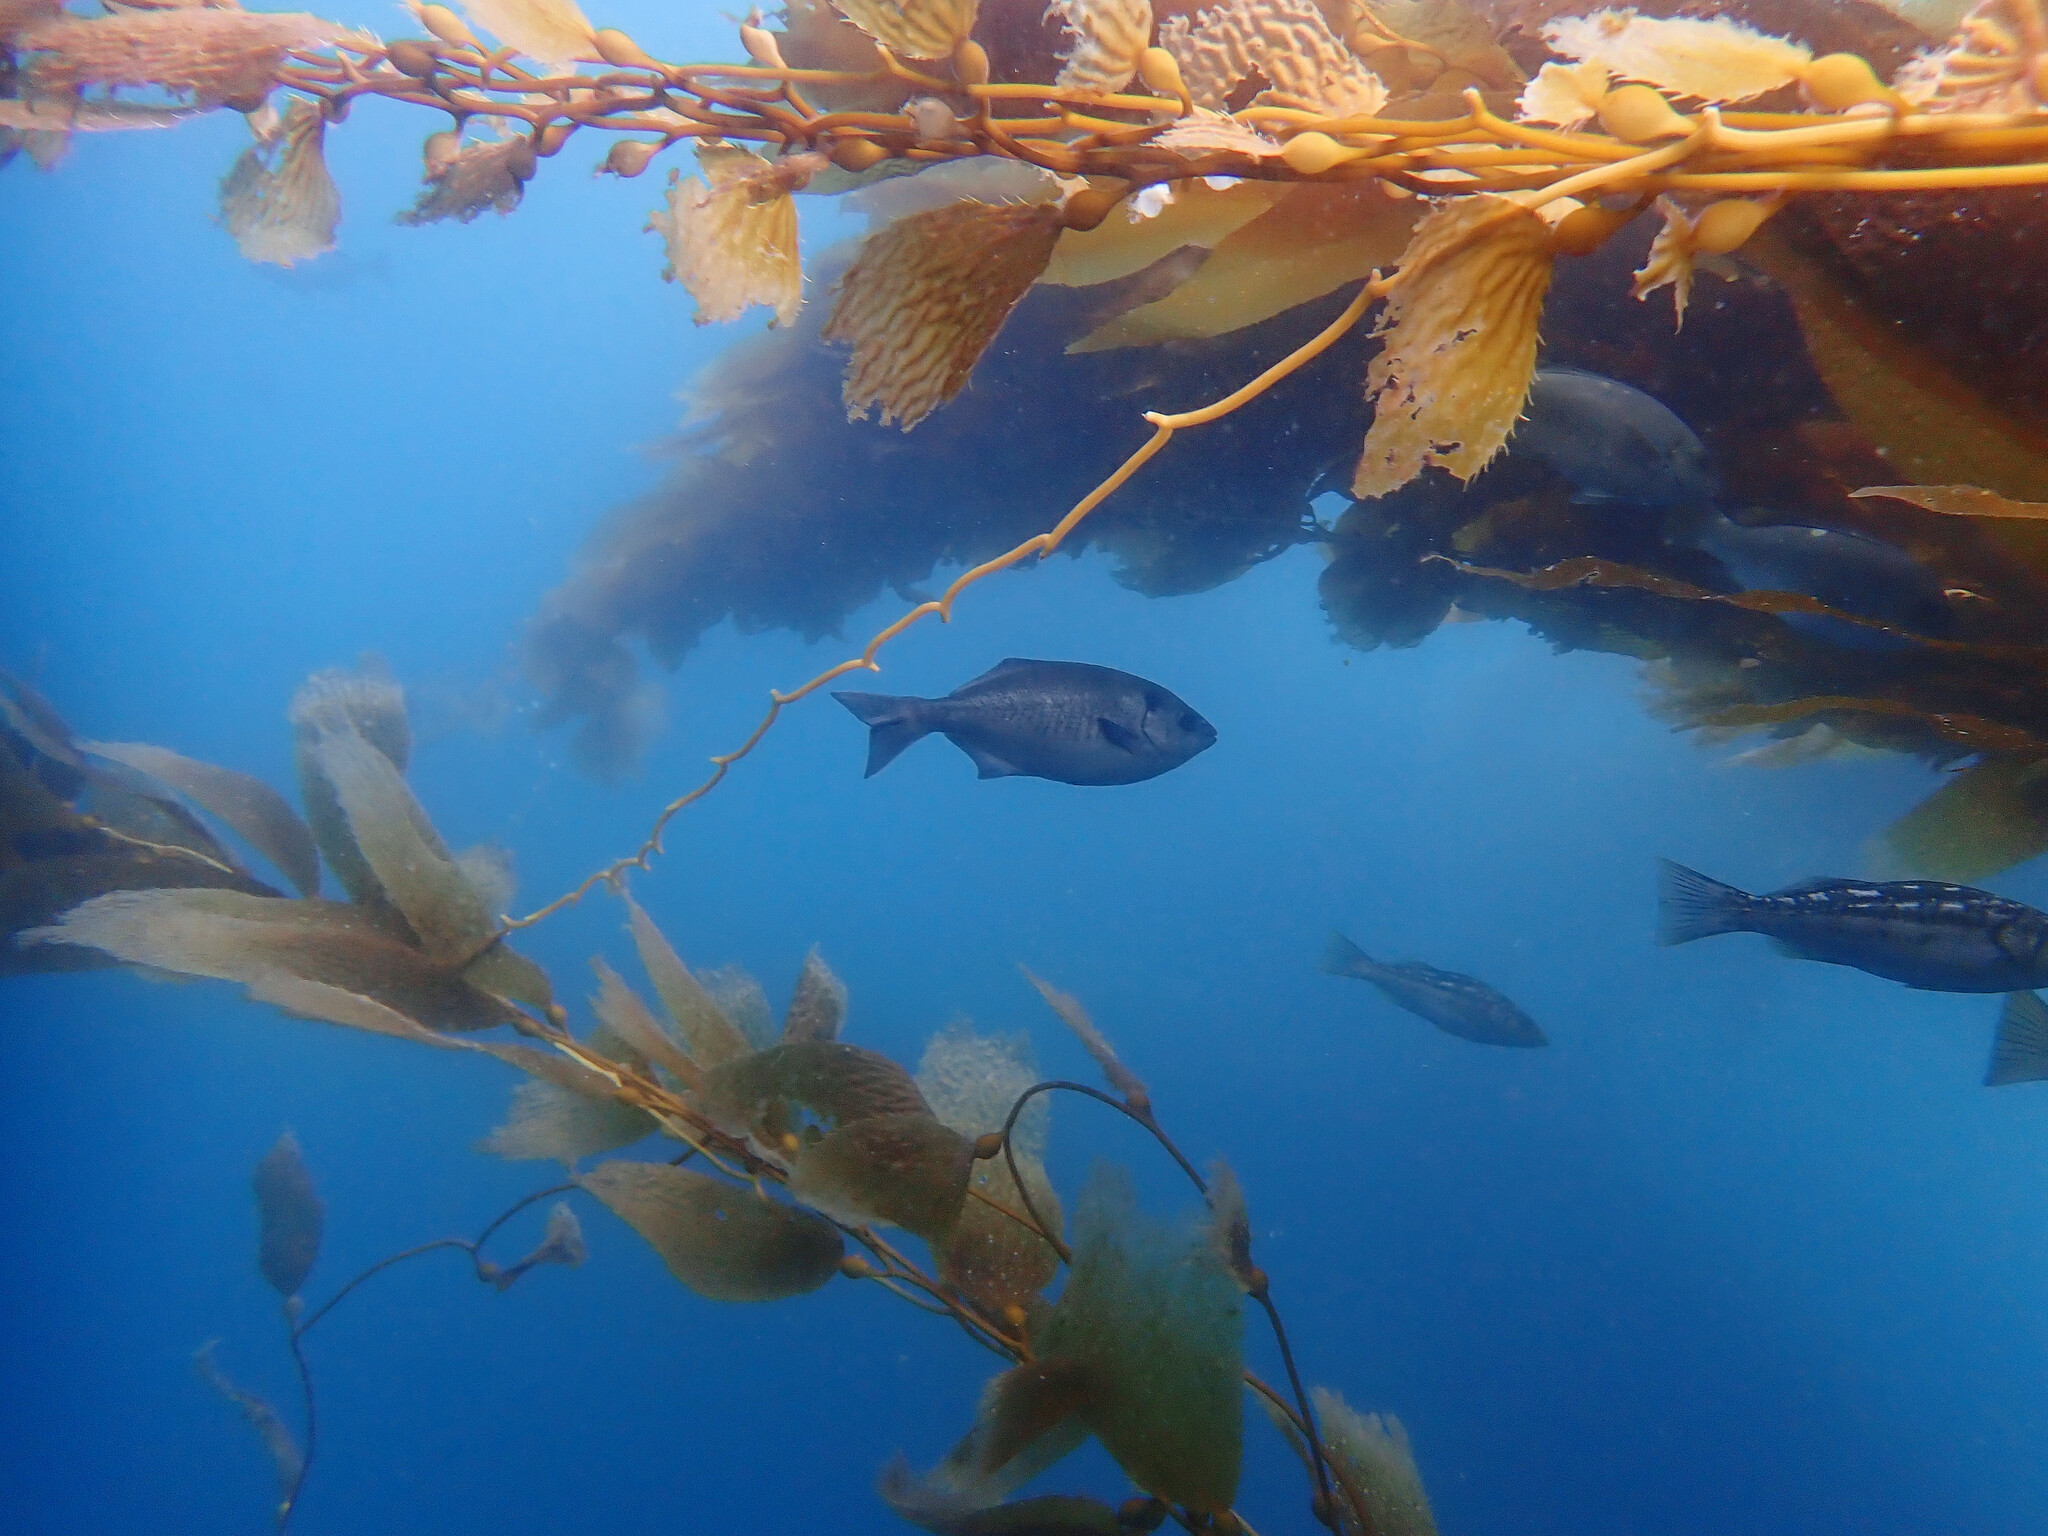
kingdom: Animalia
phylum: Chordata
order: Perciformes
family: Kyphosidae
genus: Medialuna
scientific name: Medialuna californiensis
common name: Halfmoon
